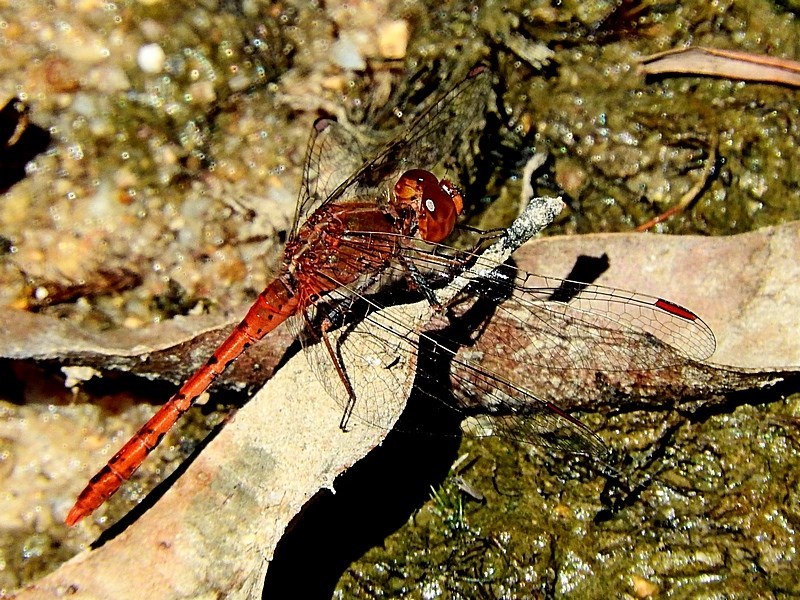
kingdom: Animalia
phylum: Arthropoda
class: Insecta
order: Odonata
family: Libellulidae
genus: Diplacodes
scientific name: Diplacodes bipunctata
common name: Red percher dragonfly
